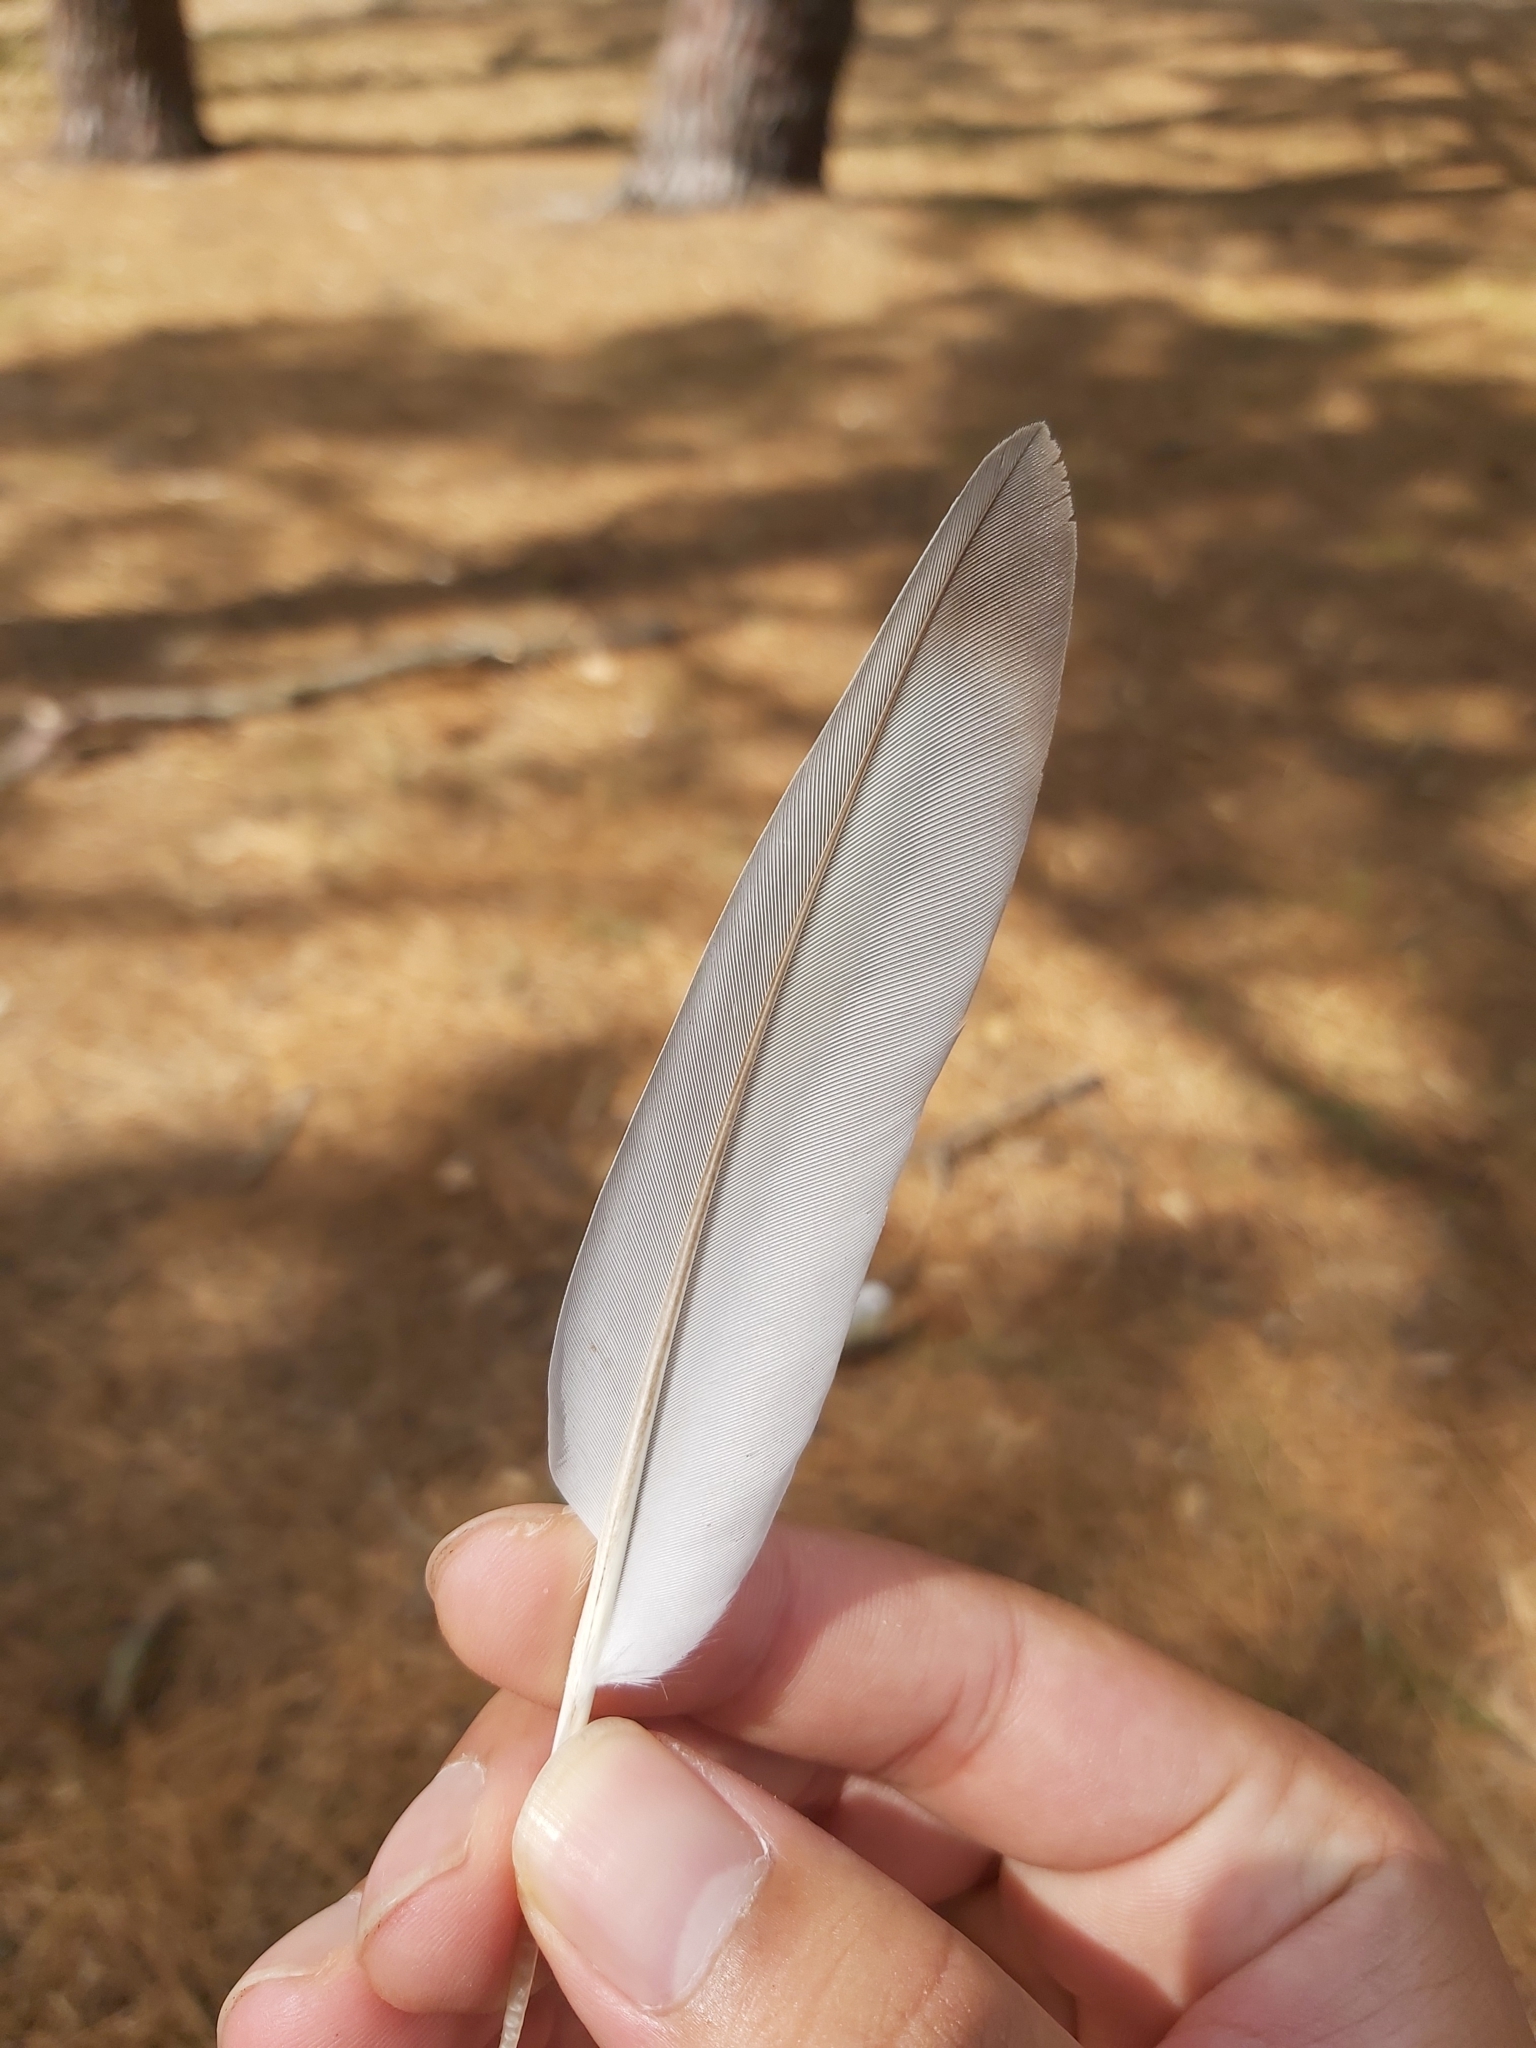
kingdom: Animalia
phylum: Chordata
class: Aves
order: Columbiformes
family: Columbidae
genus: Ocyphaps
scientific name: Ocyphaps lophotes
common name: Crested pigeon
